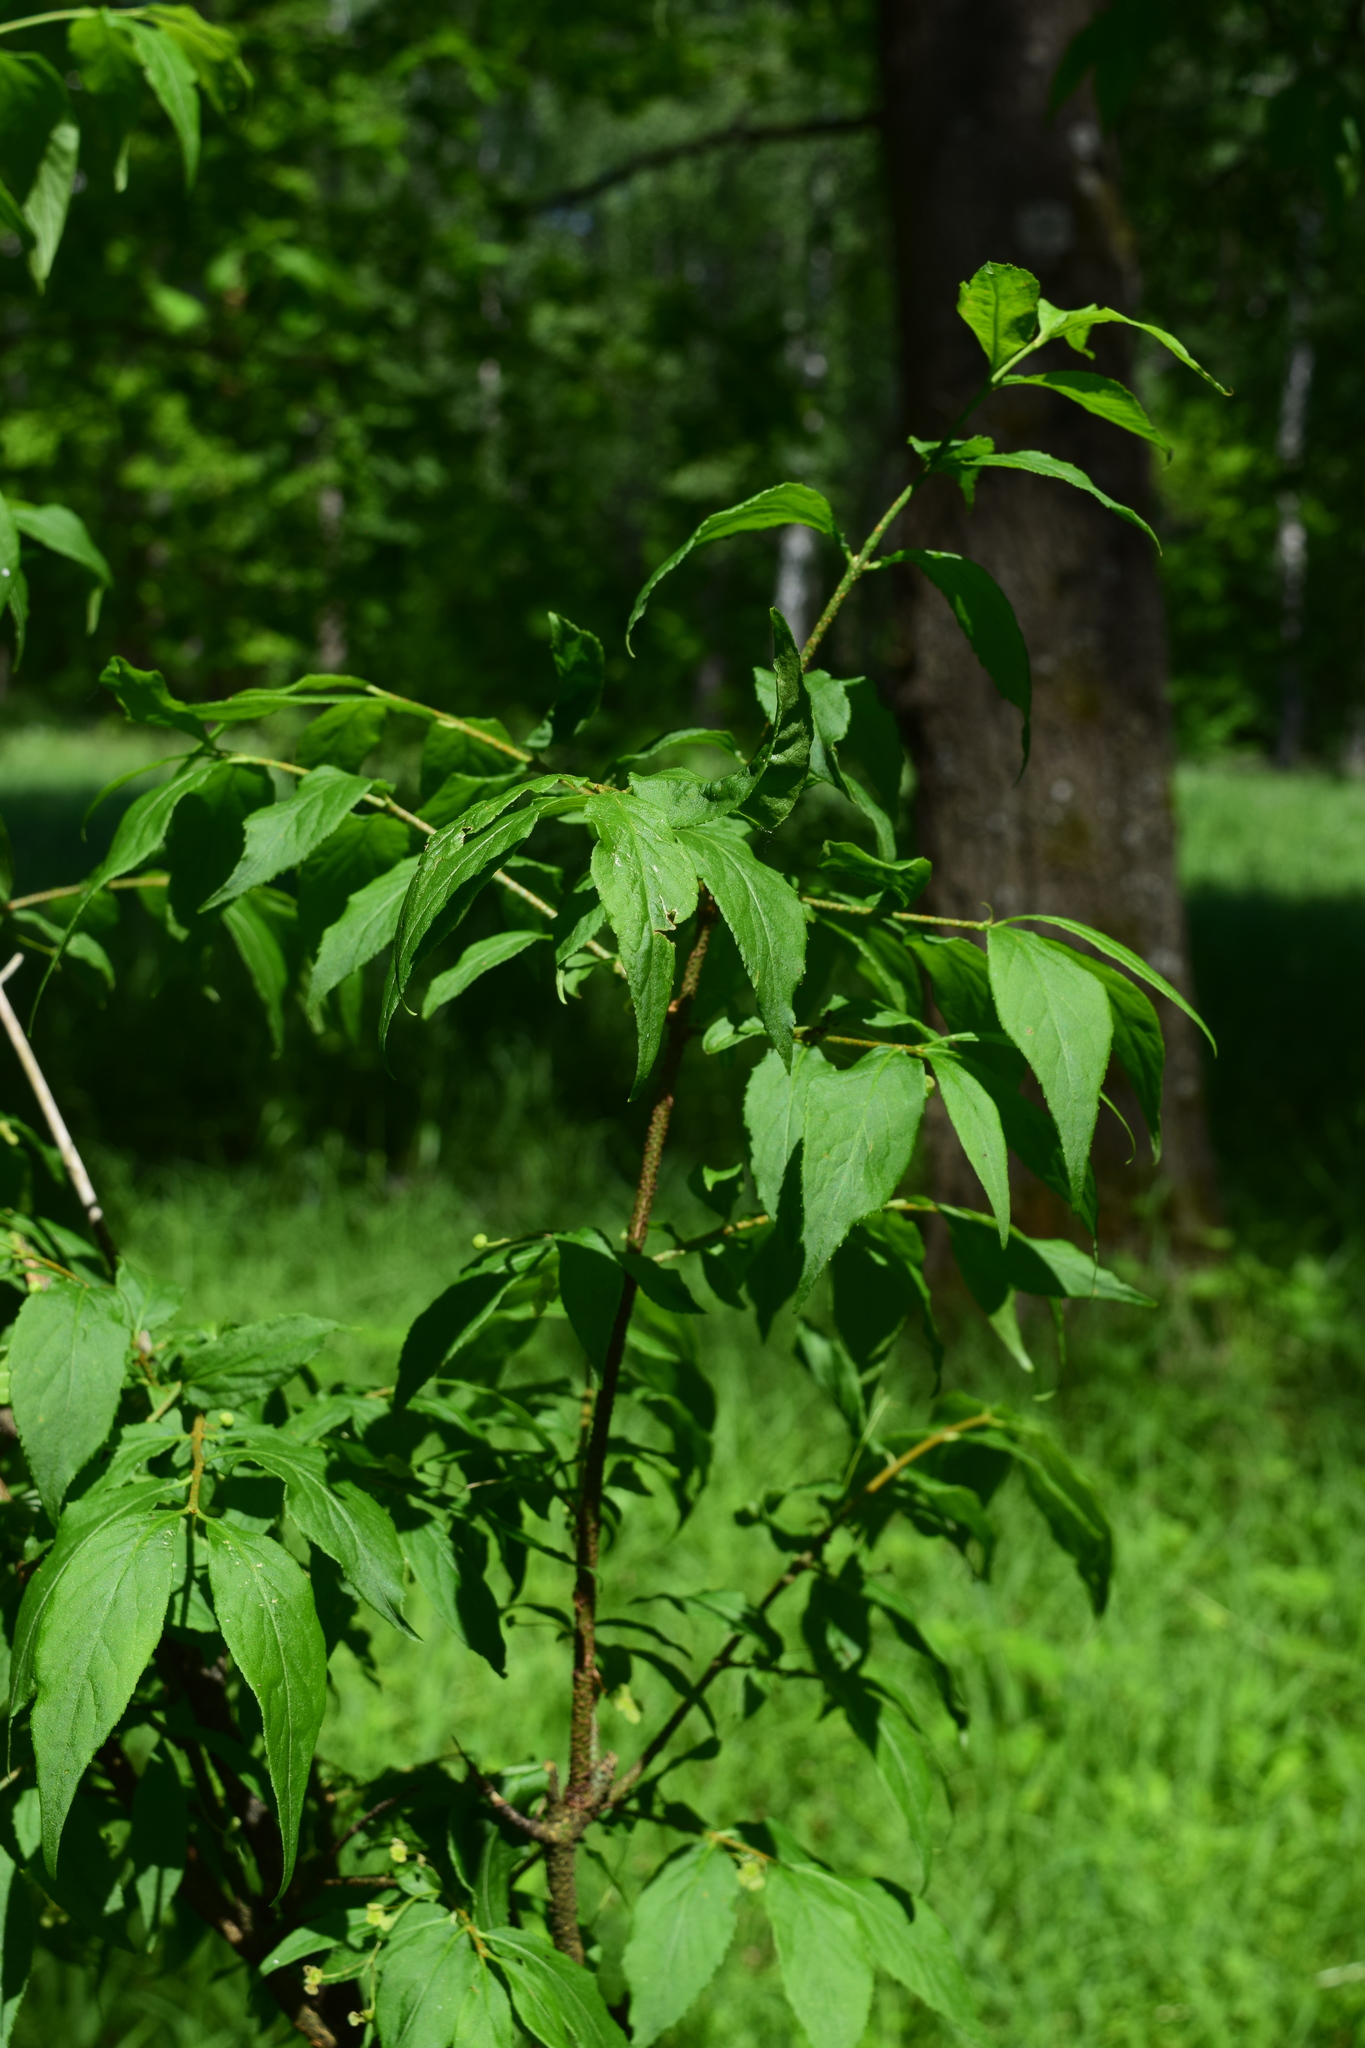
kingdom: Plantae
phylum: Tracheophyta
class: Magnoliopsida
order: Celastrales
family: Celastraceae
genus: Euonymus
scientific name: Euonymus verrucosus
